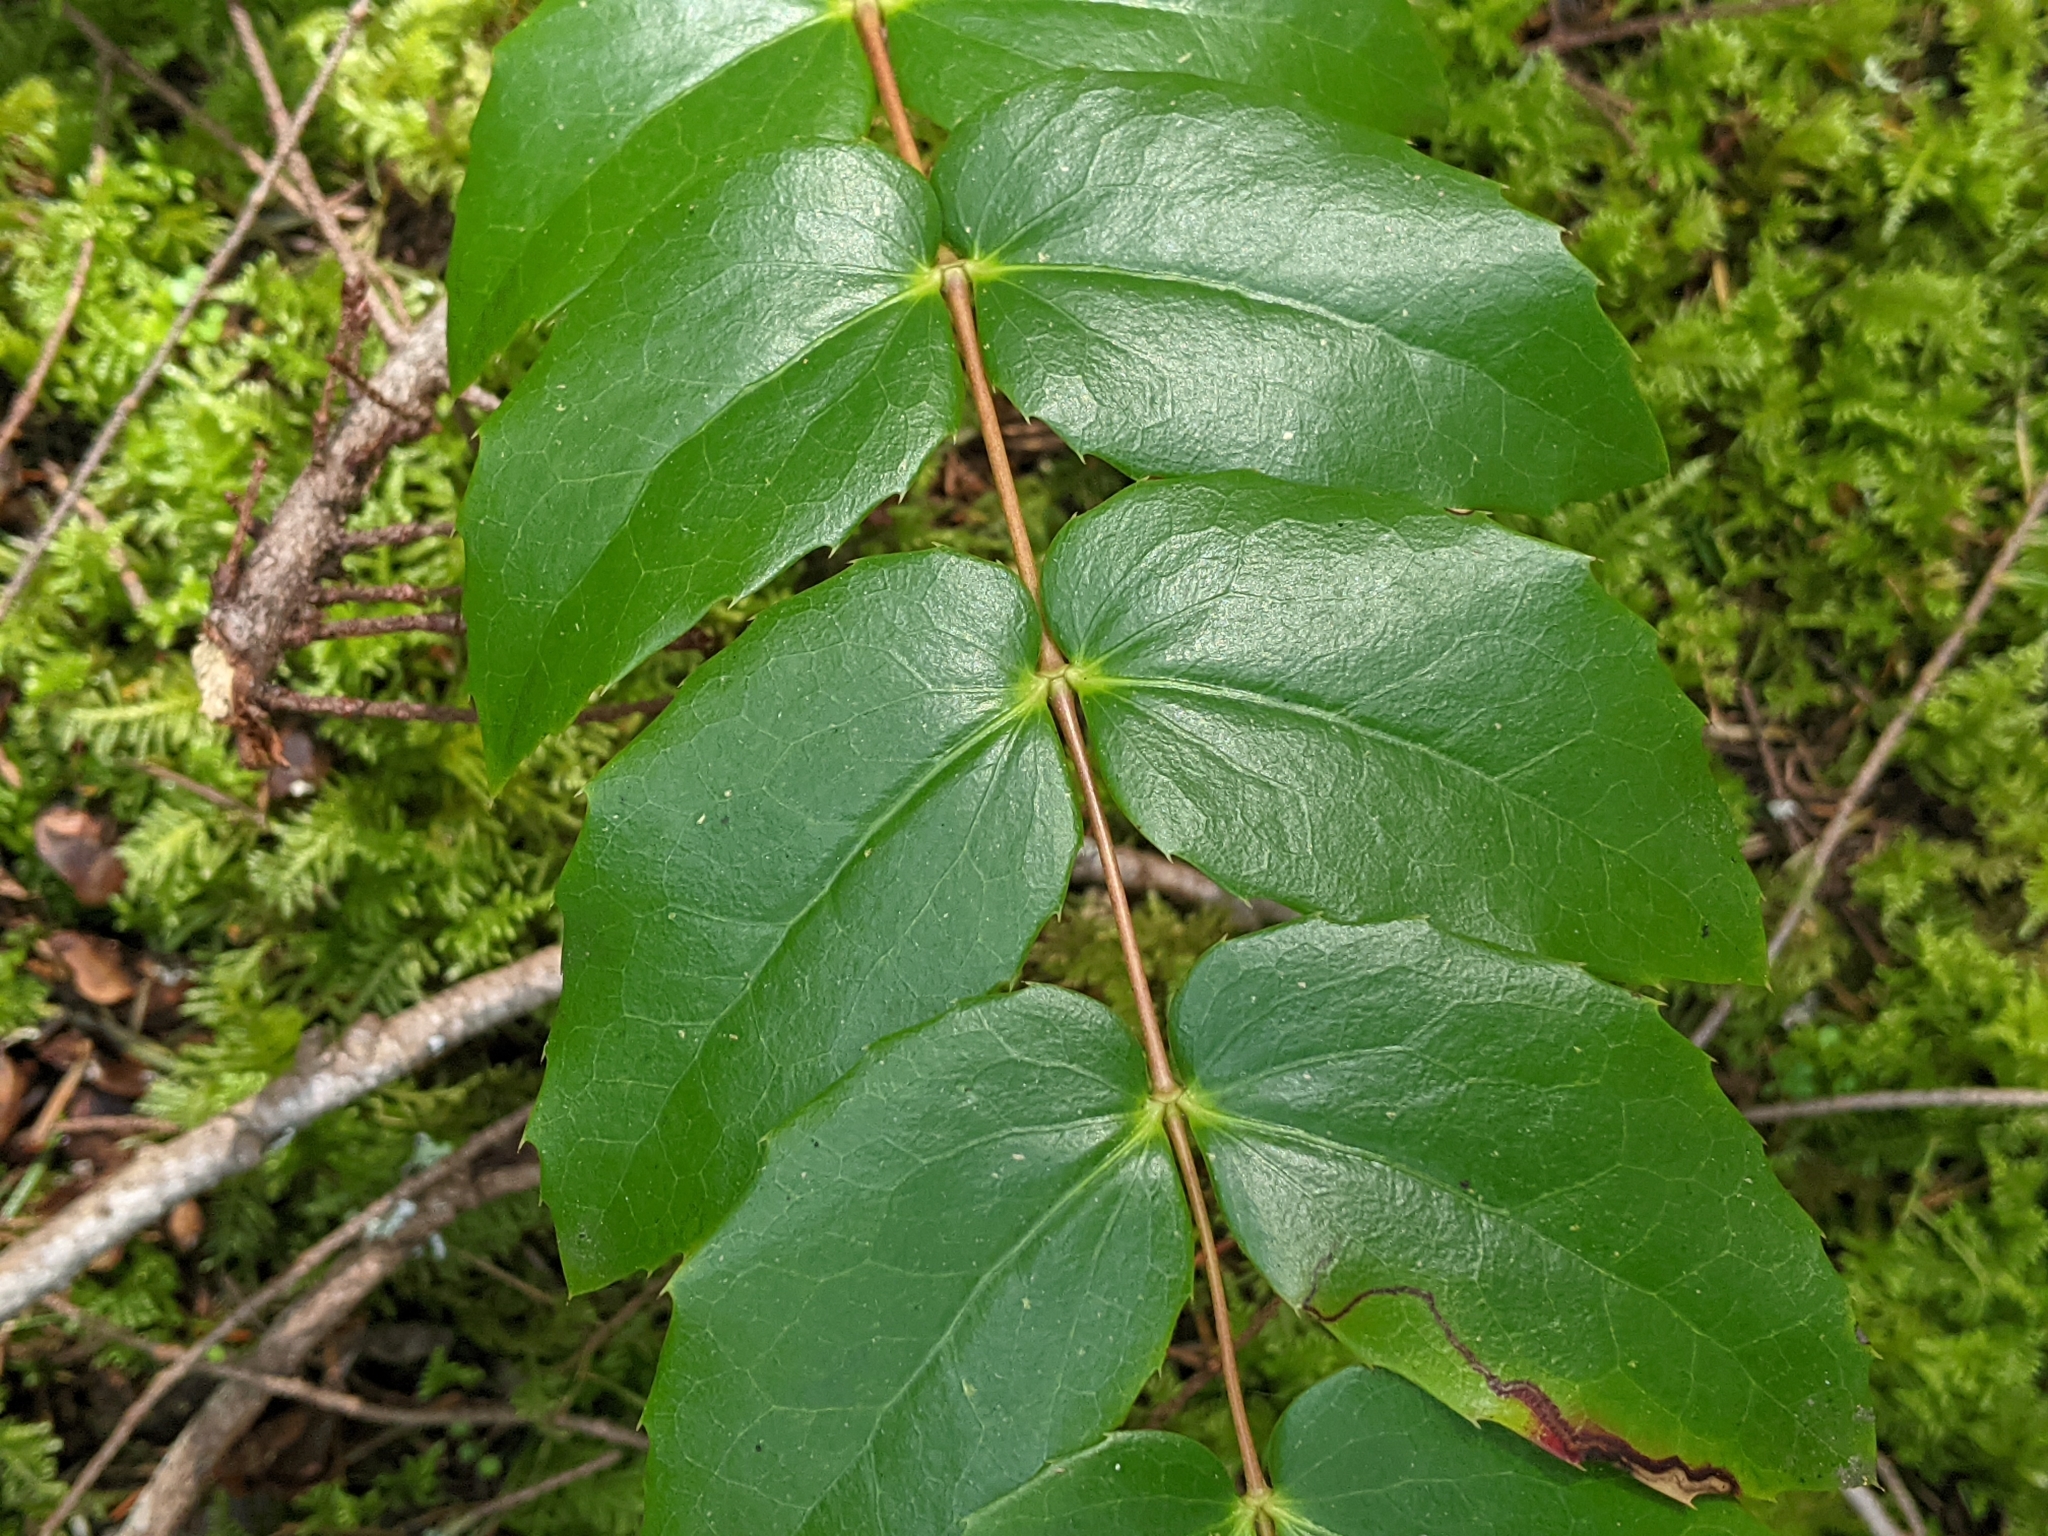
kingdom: Plantae
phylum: Tracheophyta
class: Magnoliopsida
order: Ranunculales
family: Berberidaceae
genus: Mahonia
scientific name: Mahonia nervosa
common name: Cascade oregon-grape
